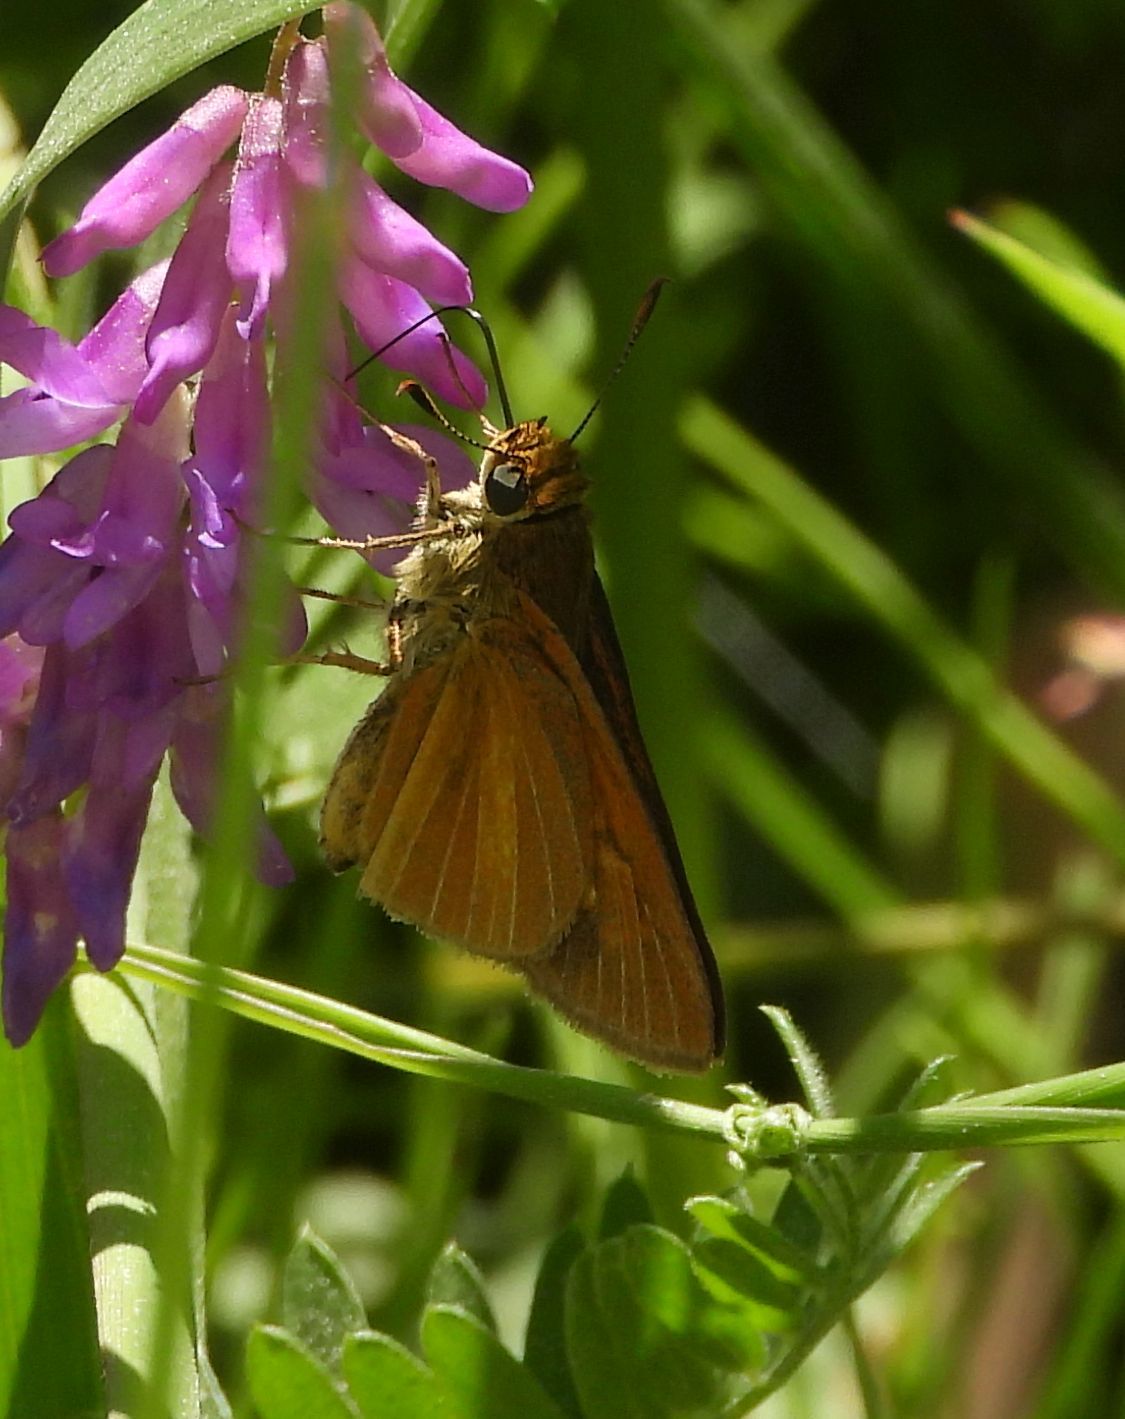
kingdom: Animalia
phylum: Arthropoda
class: Insecta
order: Lepidoptera
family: Hesperiidae
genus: Euphyes
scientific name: Euphyes dion
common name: Dion skipper
